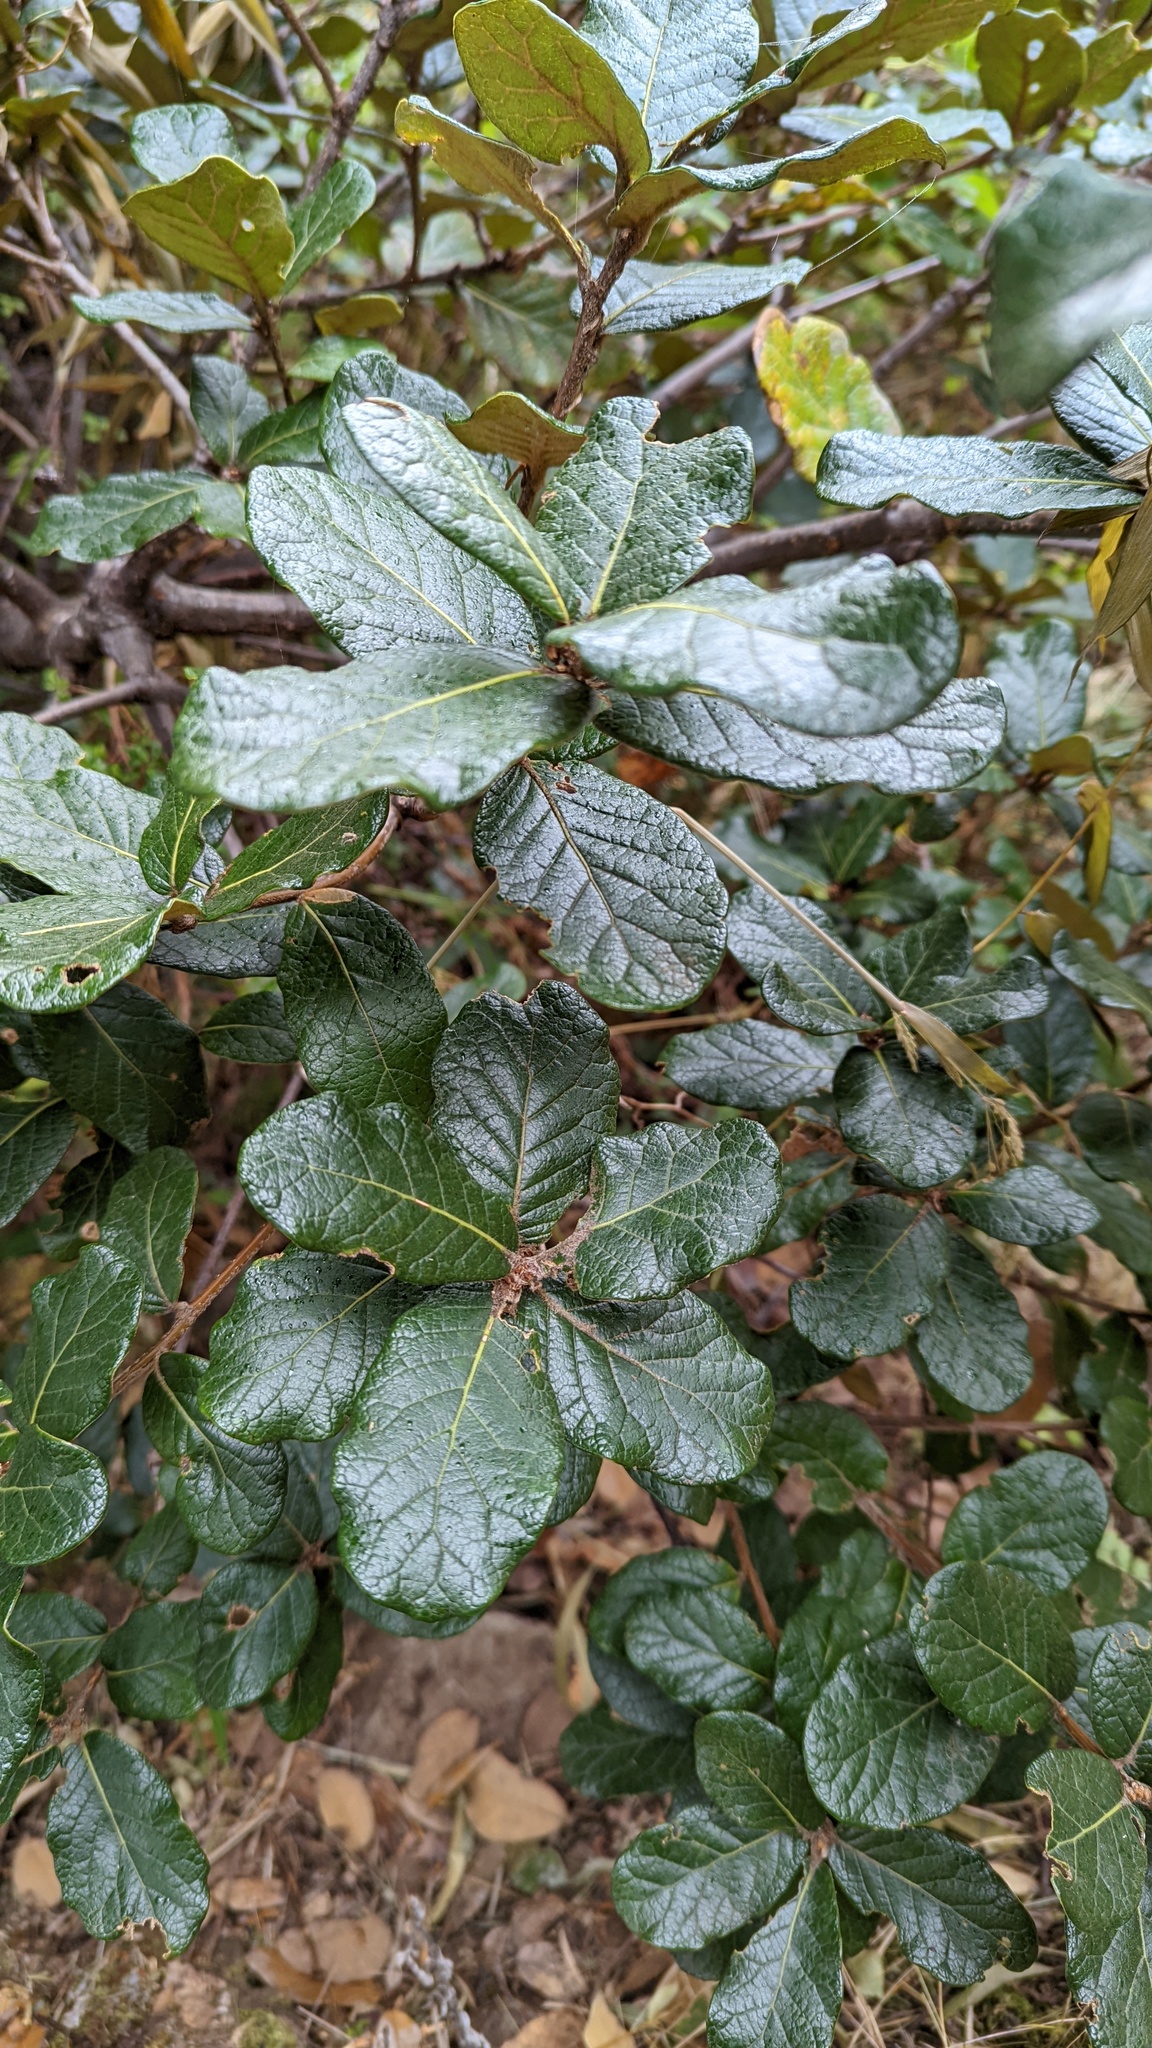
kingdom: Plantae
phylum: Tracheophyta
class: Magnoliopsida
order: Fagales
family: Fagaceae
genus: Quercus
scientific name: Quercus costaricensis
